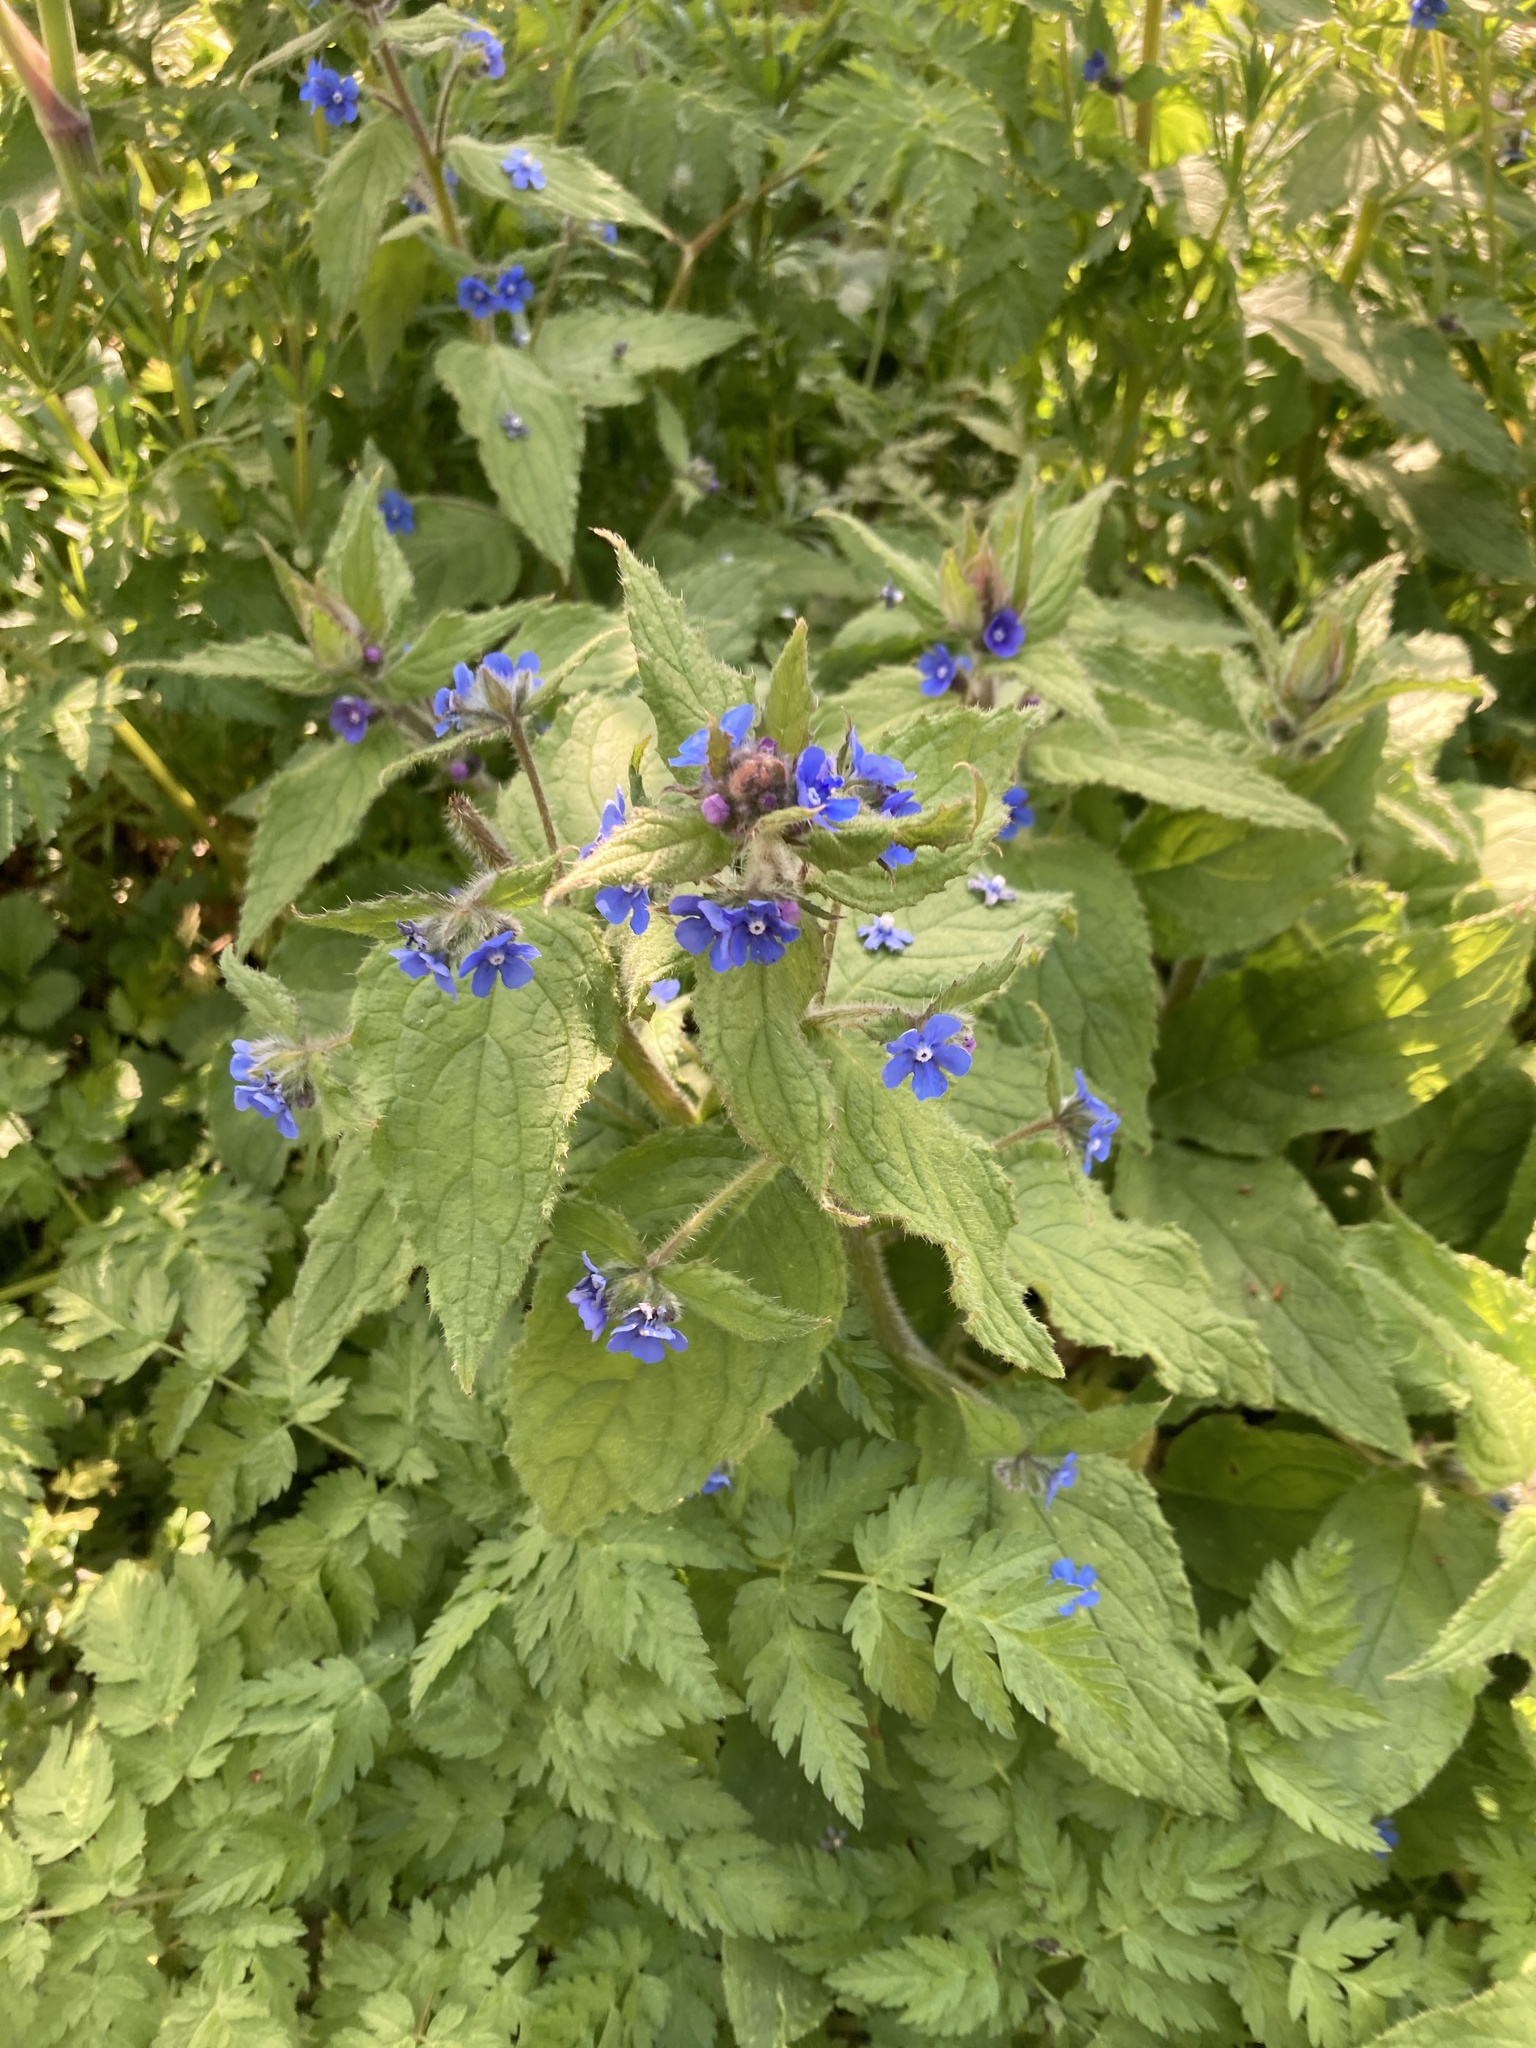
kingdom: Plantae
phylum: Tracheophyta
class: Magnoliopsida
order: Boraginales
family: Boraginaceae
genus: Pentaglottis
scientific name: Pentaglottis sempervirens
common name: Green alkanet
